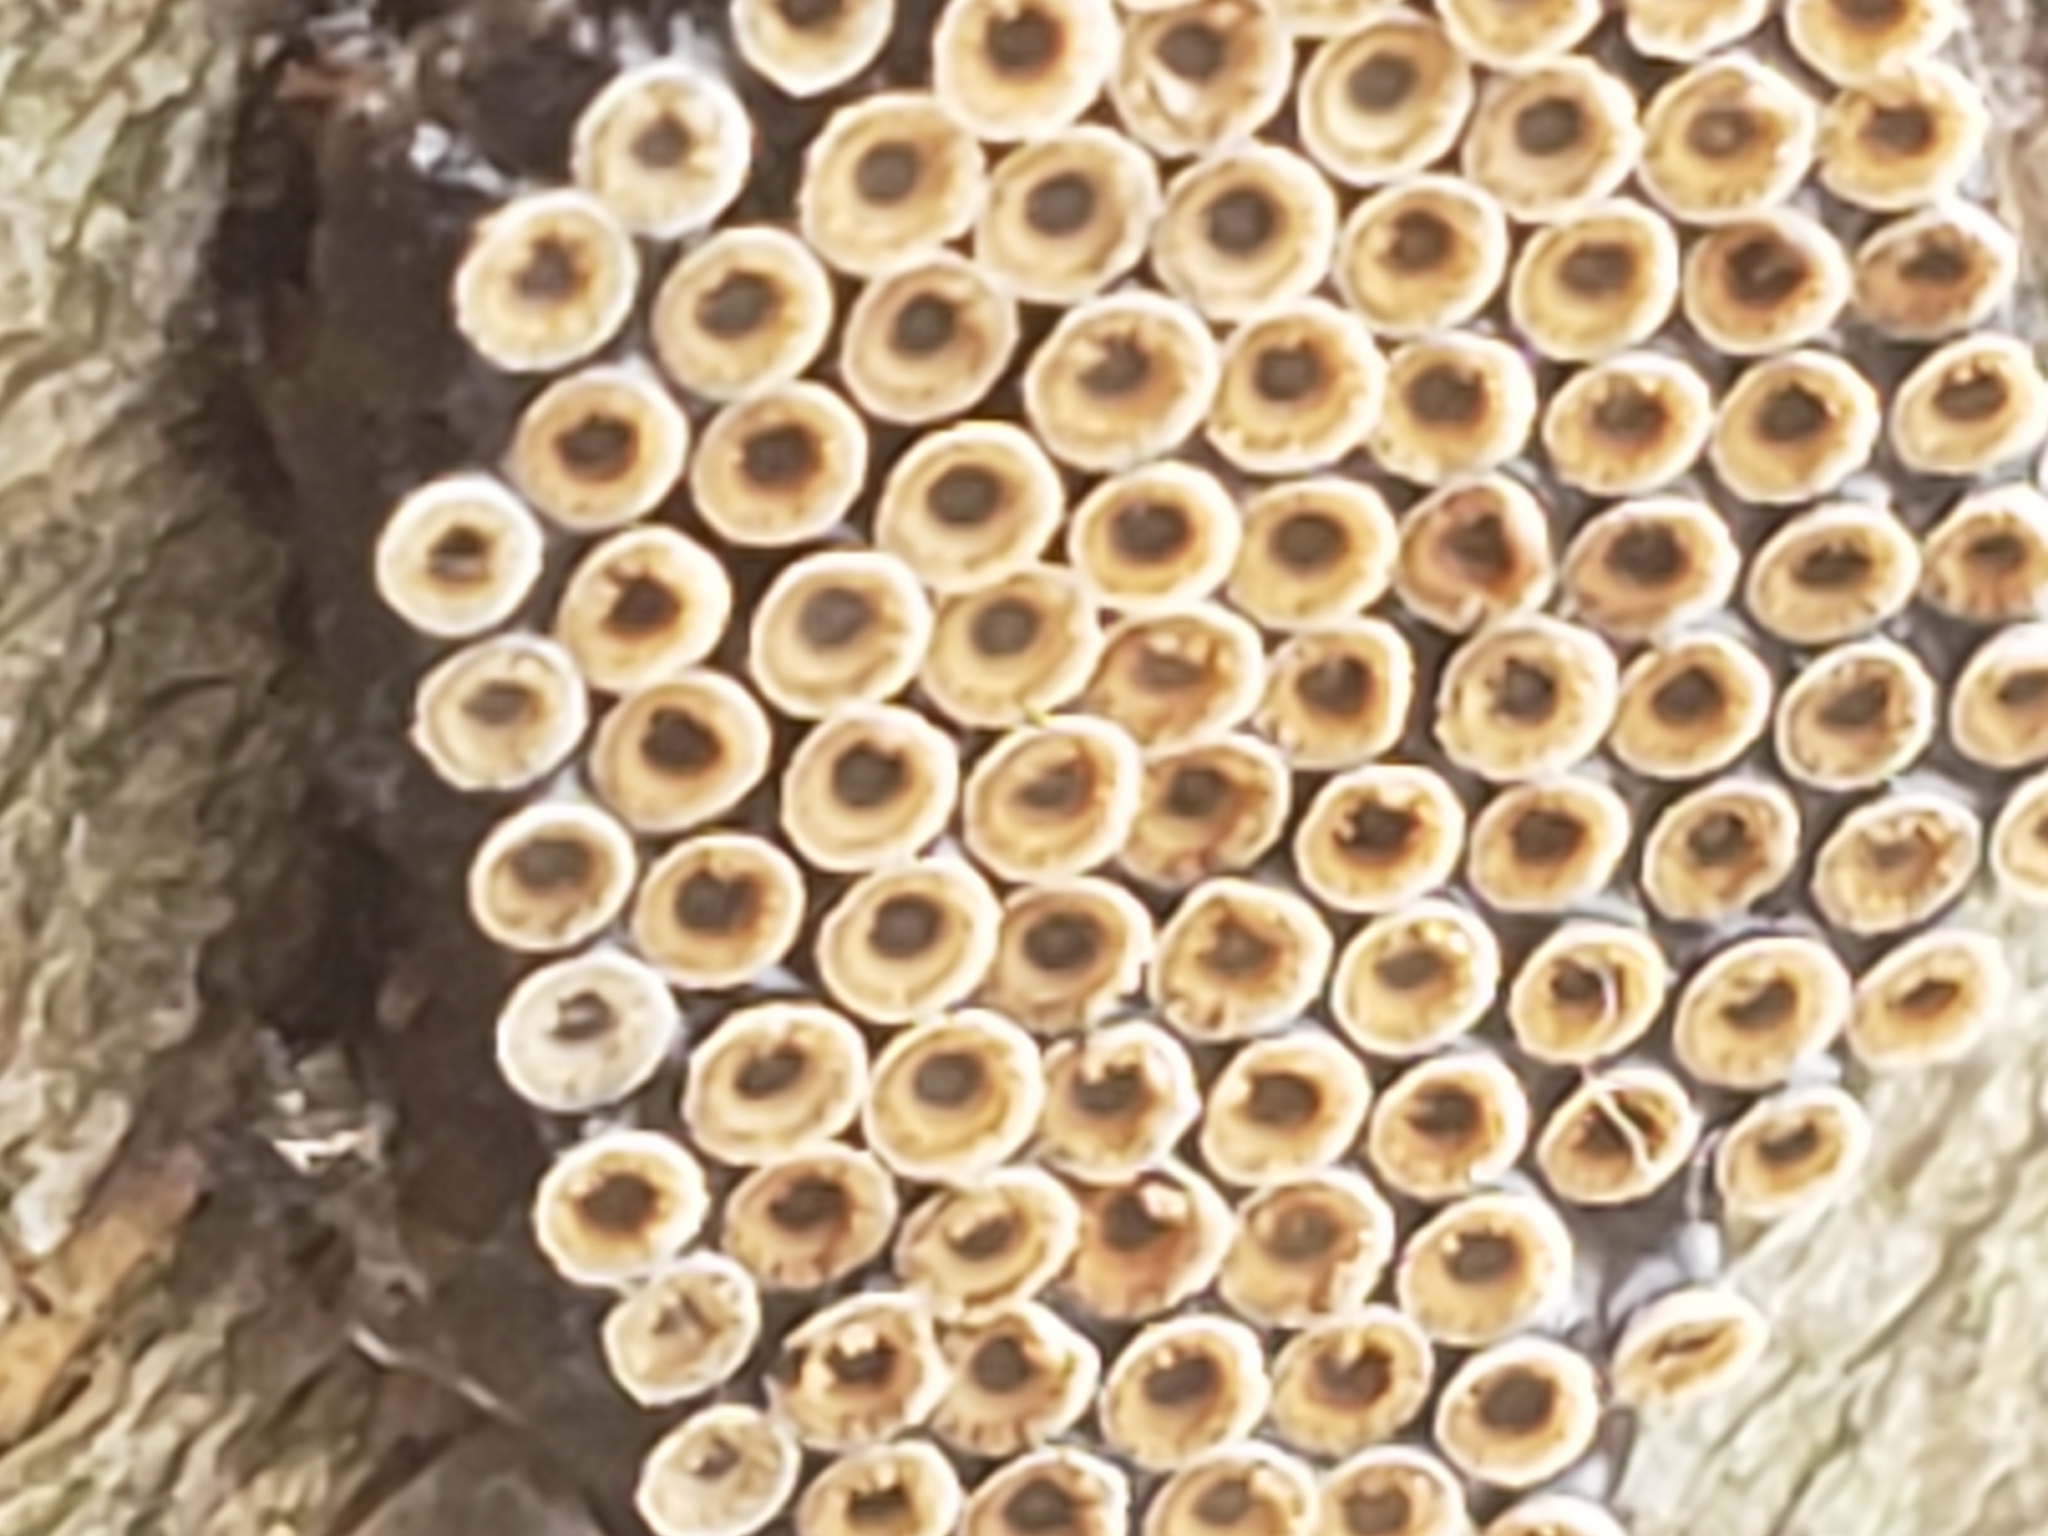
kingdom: Animalia
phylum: Arthropoda
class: Insecta
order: Hemiptera
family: Reduviidae
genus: Arilus
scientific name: Arilus cristatus
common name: North american wheel bug
